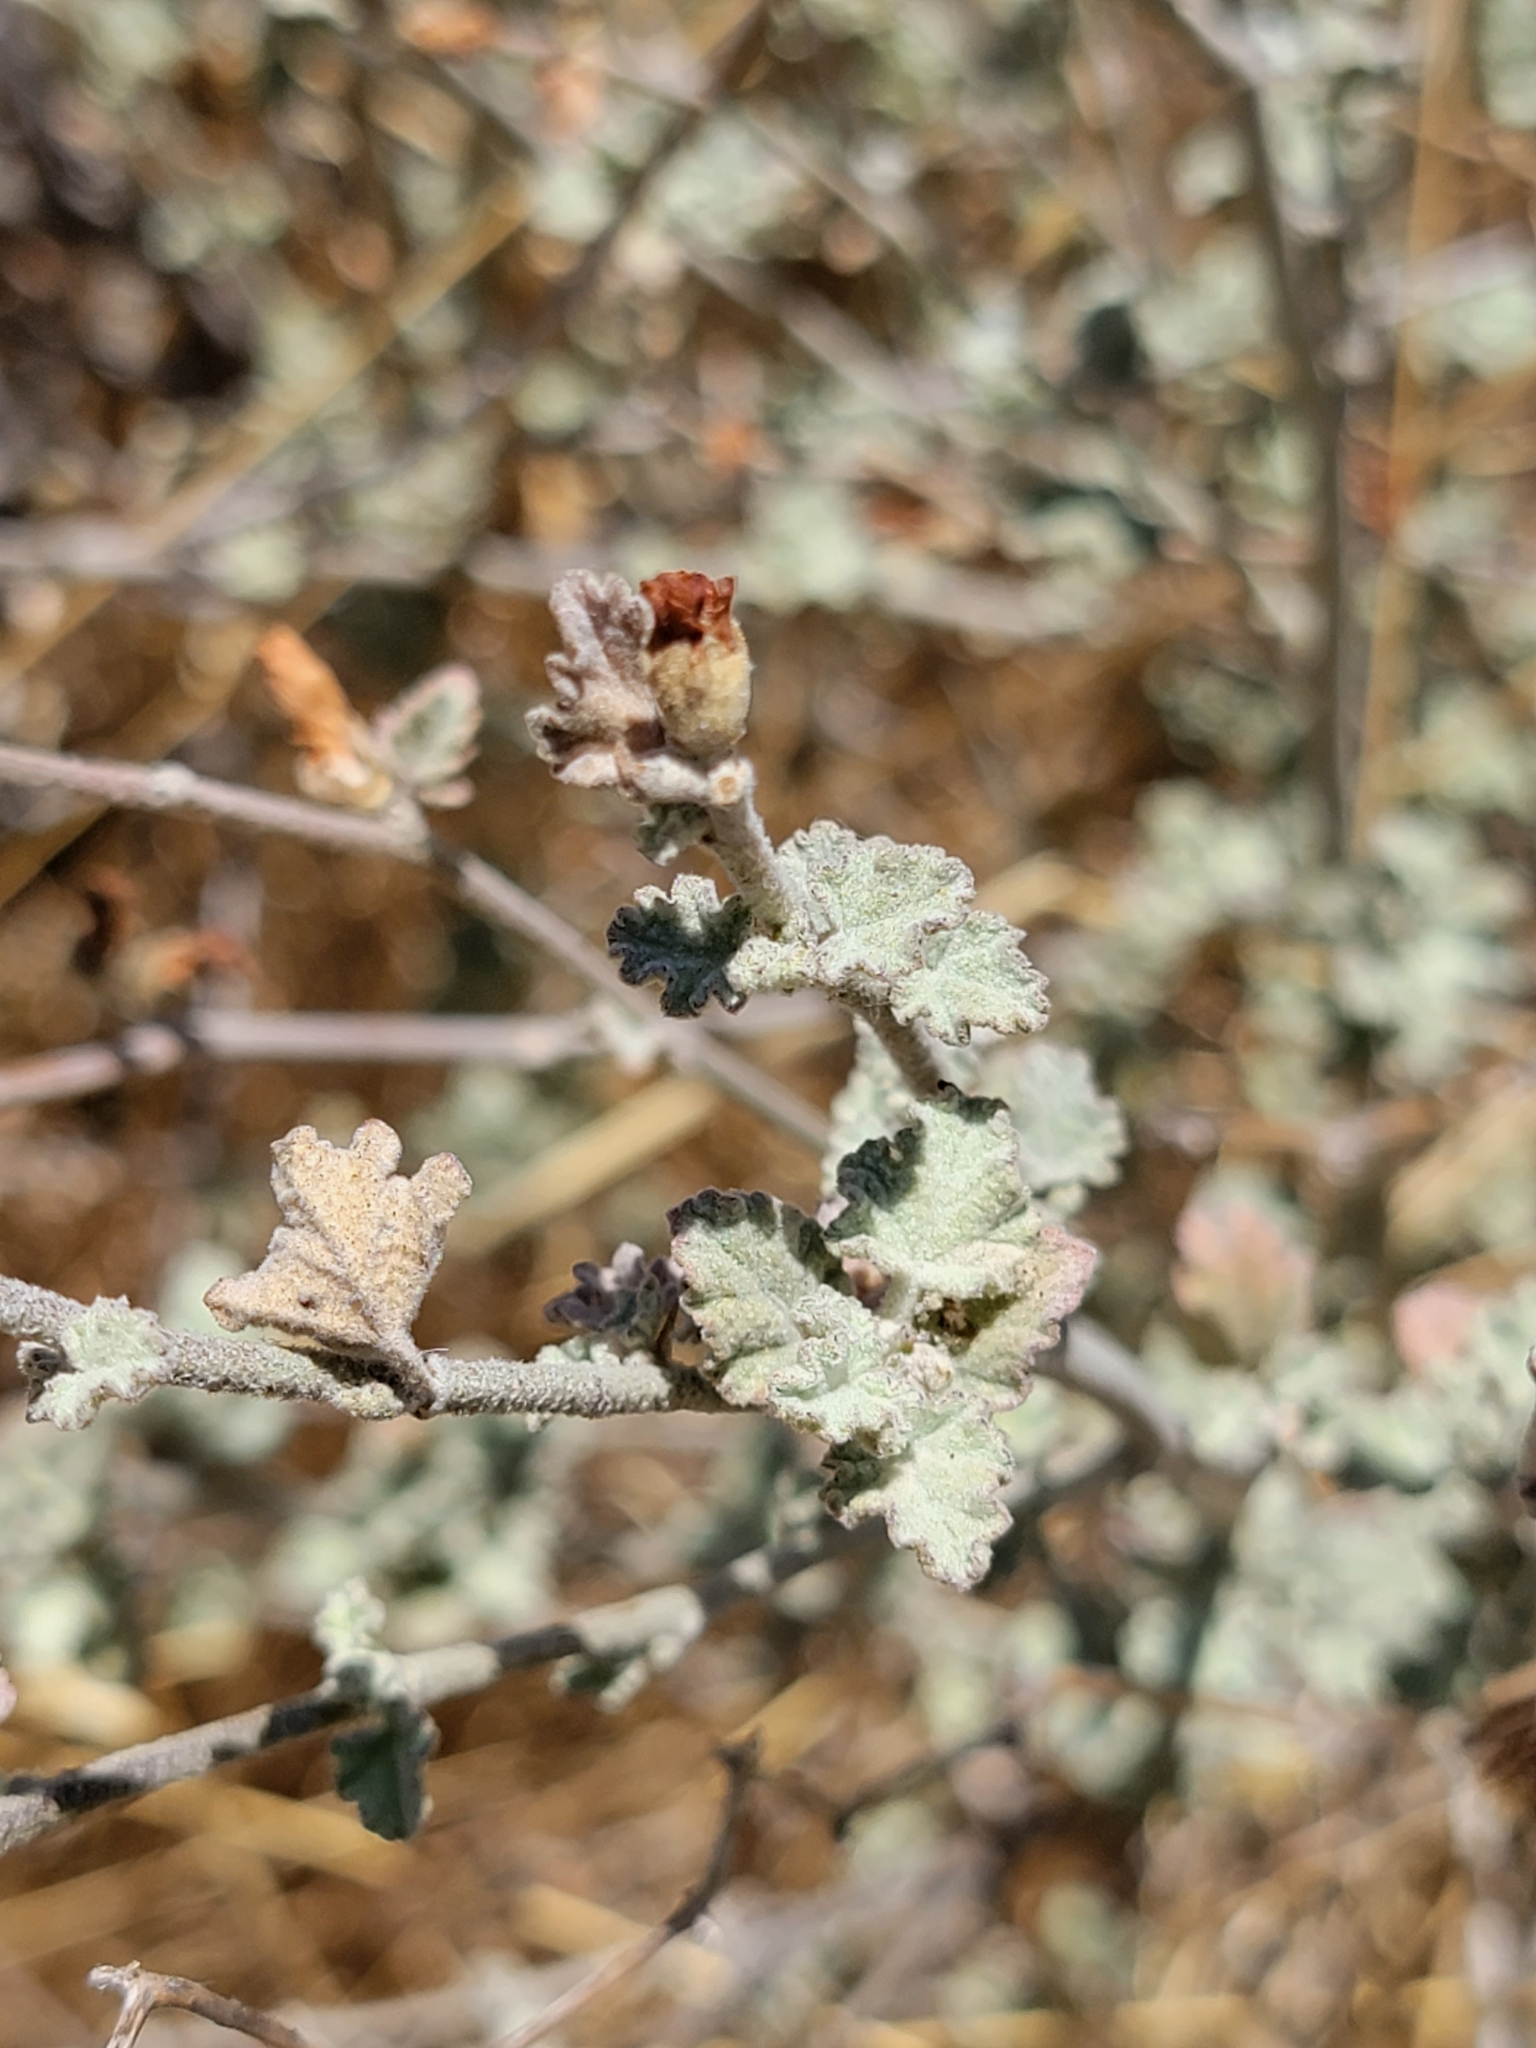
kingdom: Plantae
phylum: Tracheophyta
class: Magnoliopsida
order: Malvales
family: Malvaceae
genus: Malacothamnus
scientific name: Malacothamnus fasciculatus
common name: Sant cruz island bush-mallow
